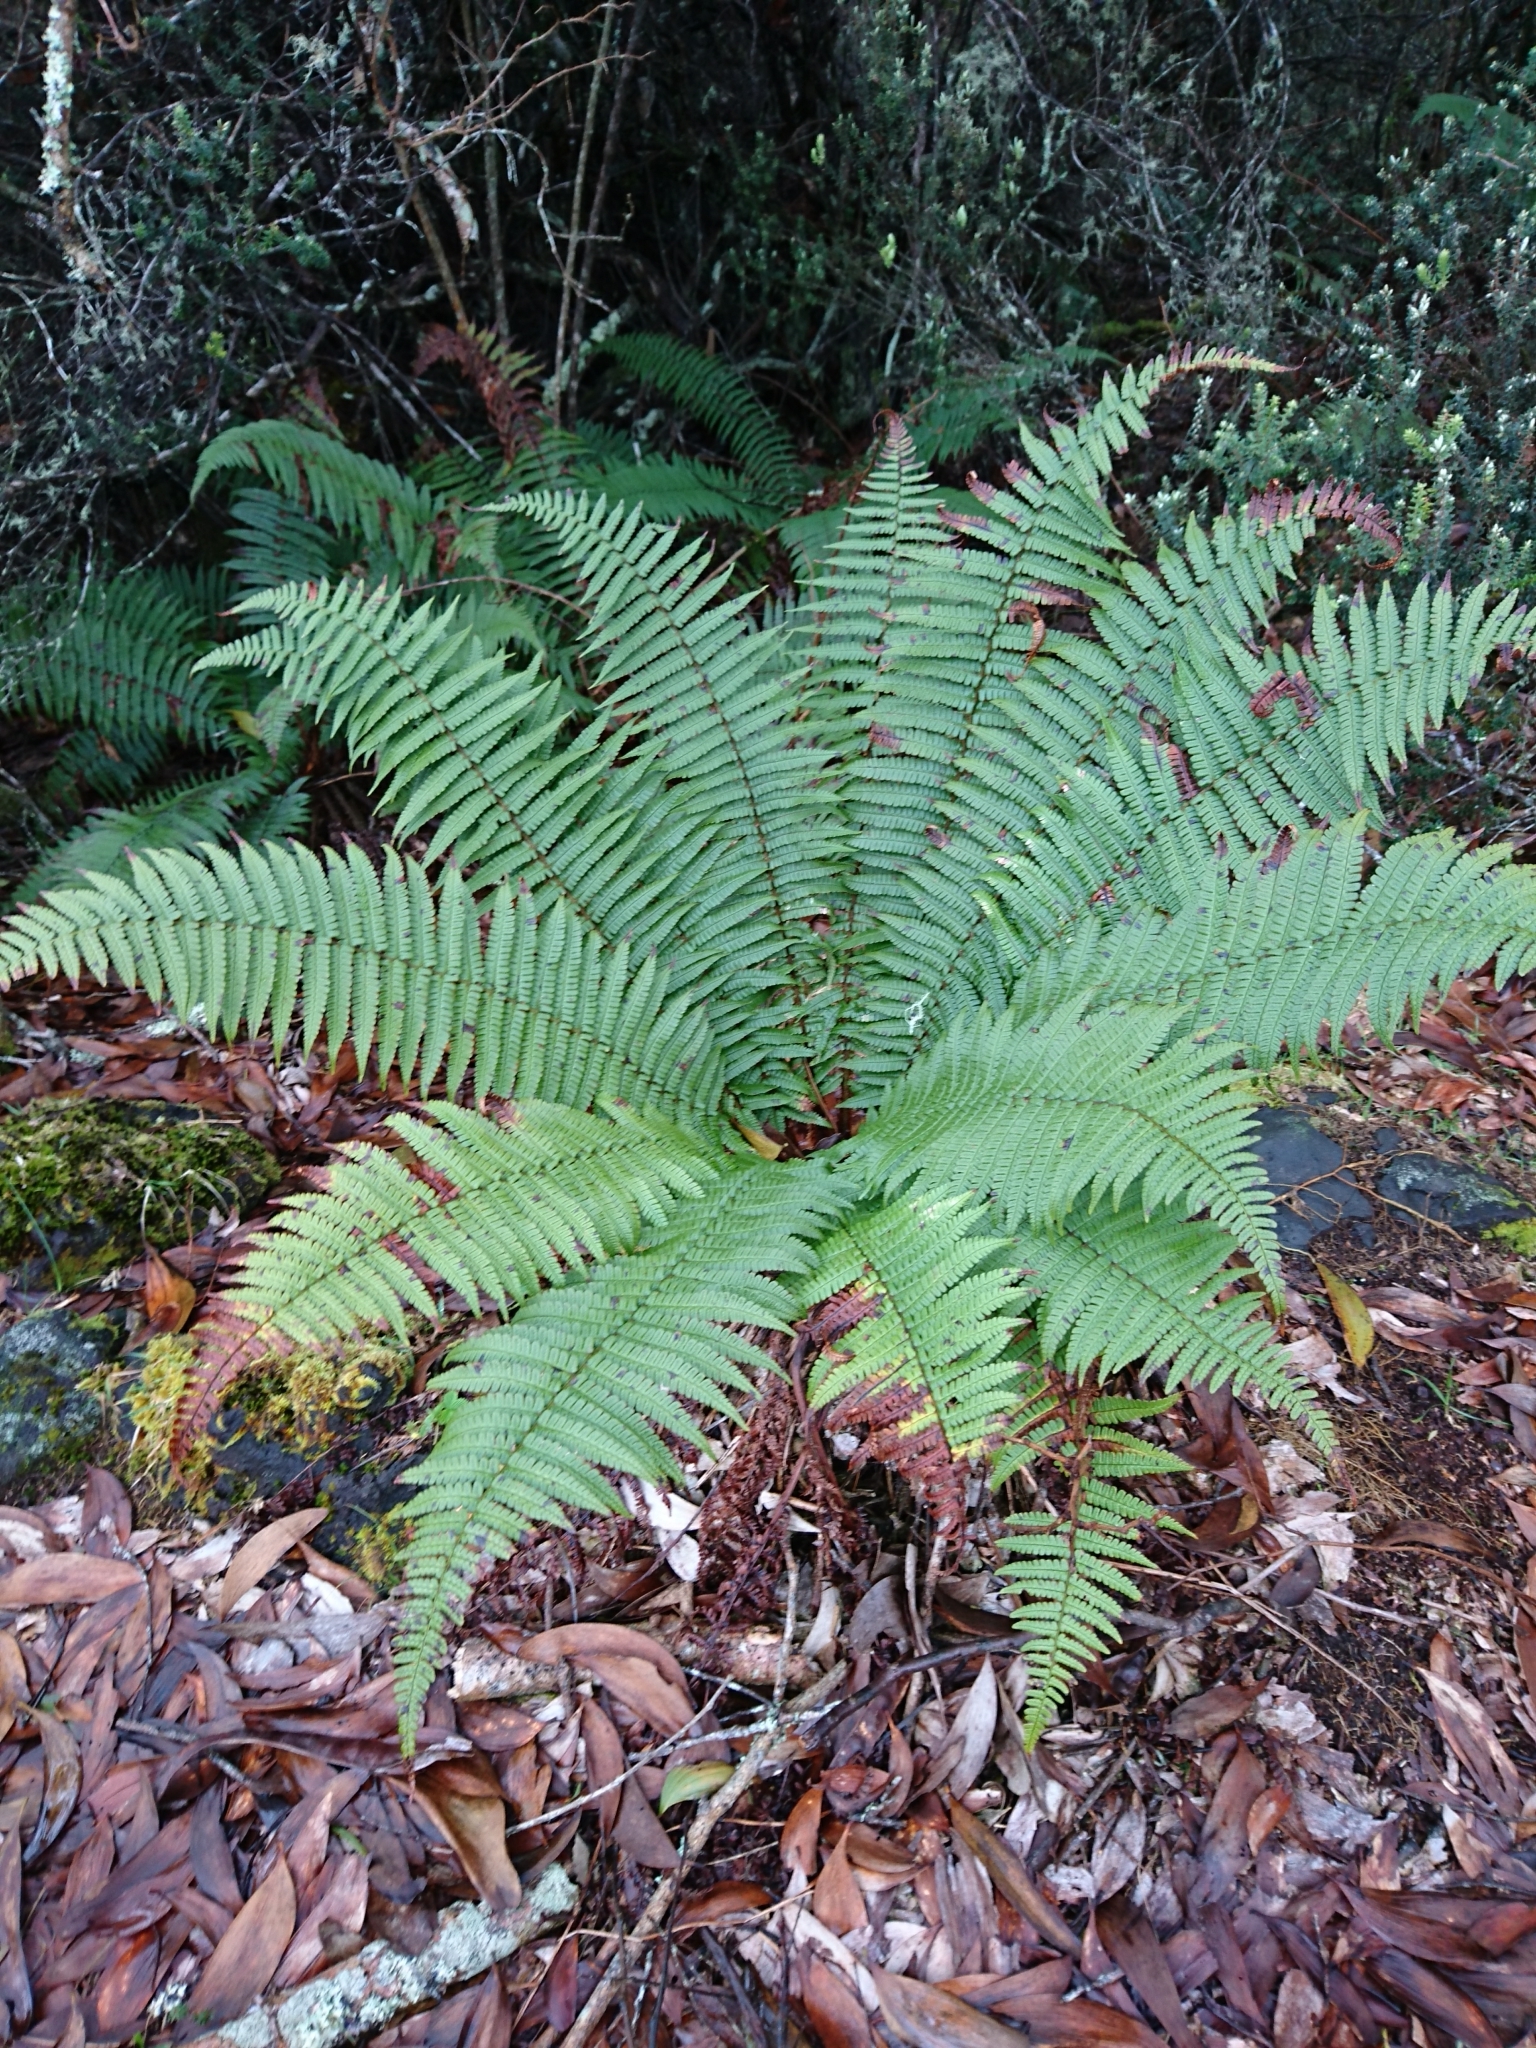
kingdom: Plantae
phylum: Tracheophyta
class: Polypodiopsida
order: Polypodiales
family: Dryopteridaceae
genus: Dryopteris
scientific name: Dryopteris wallichiana
